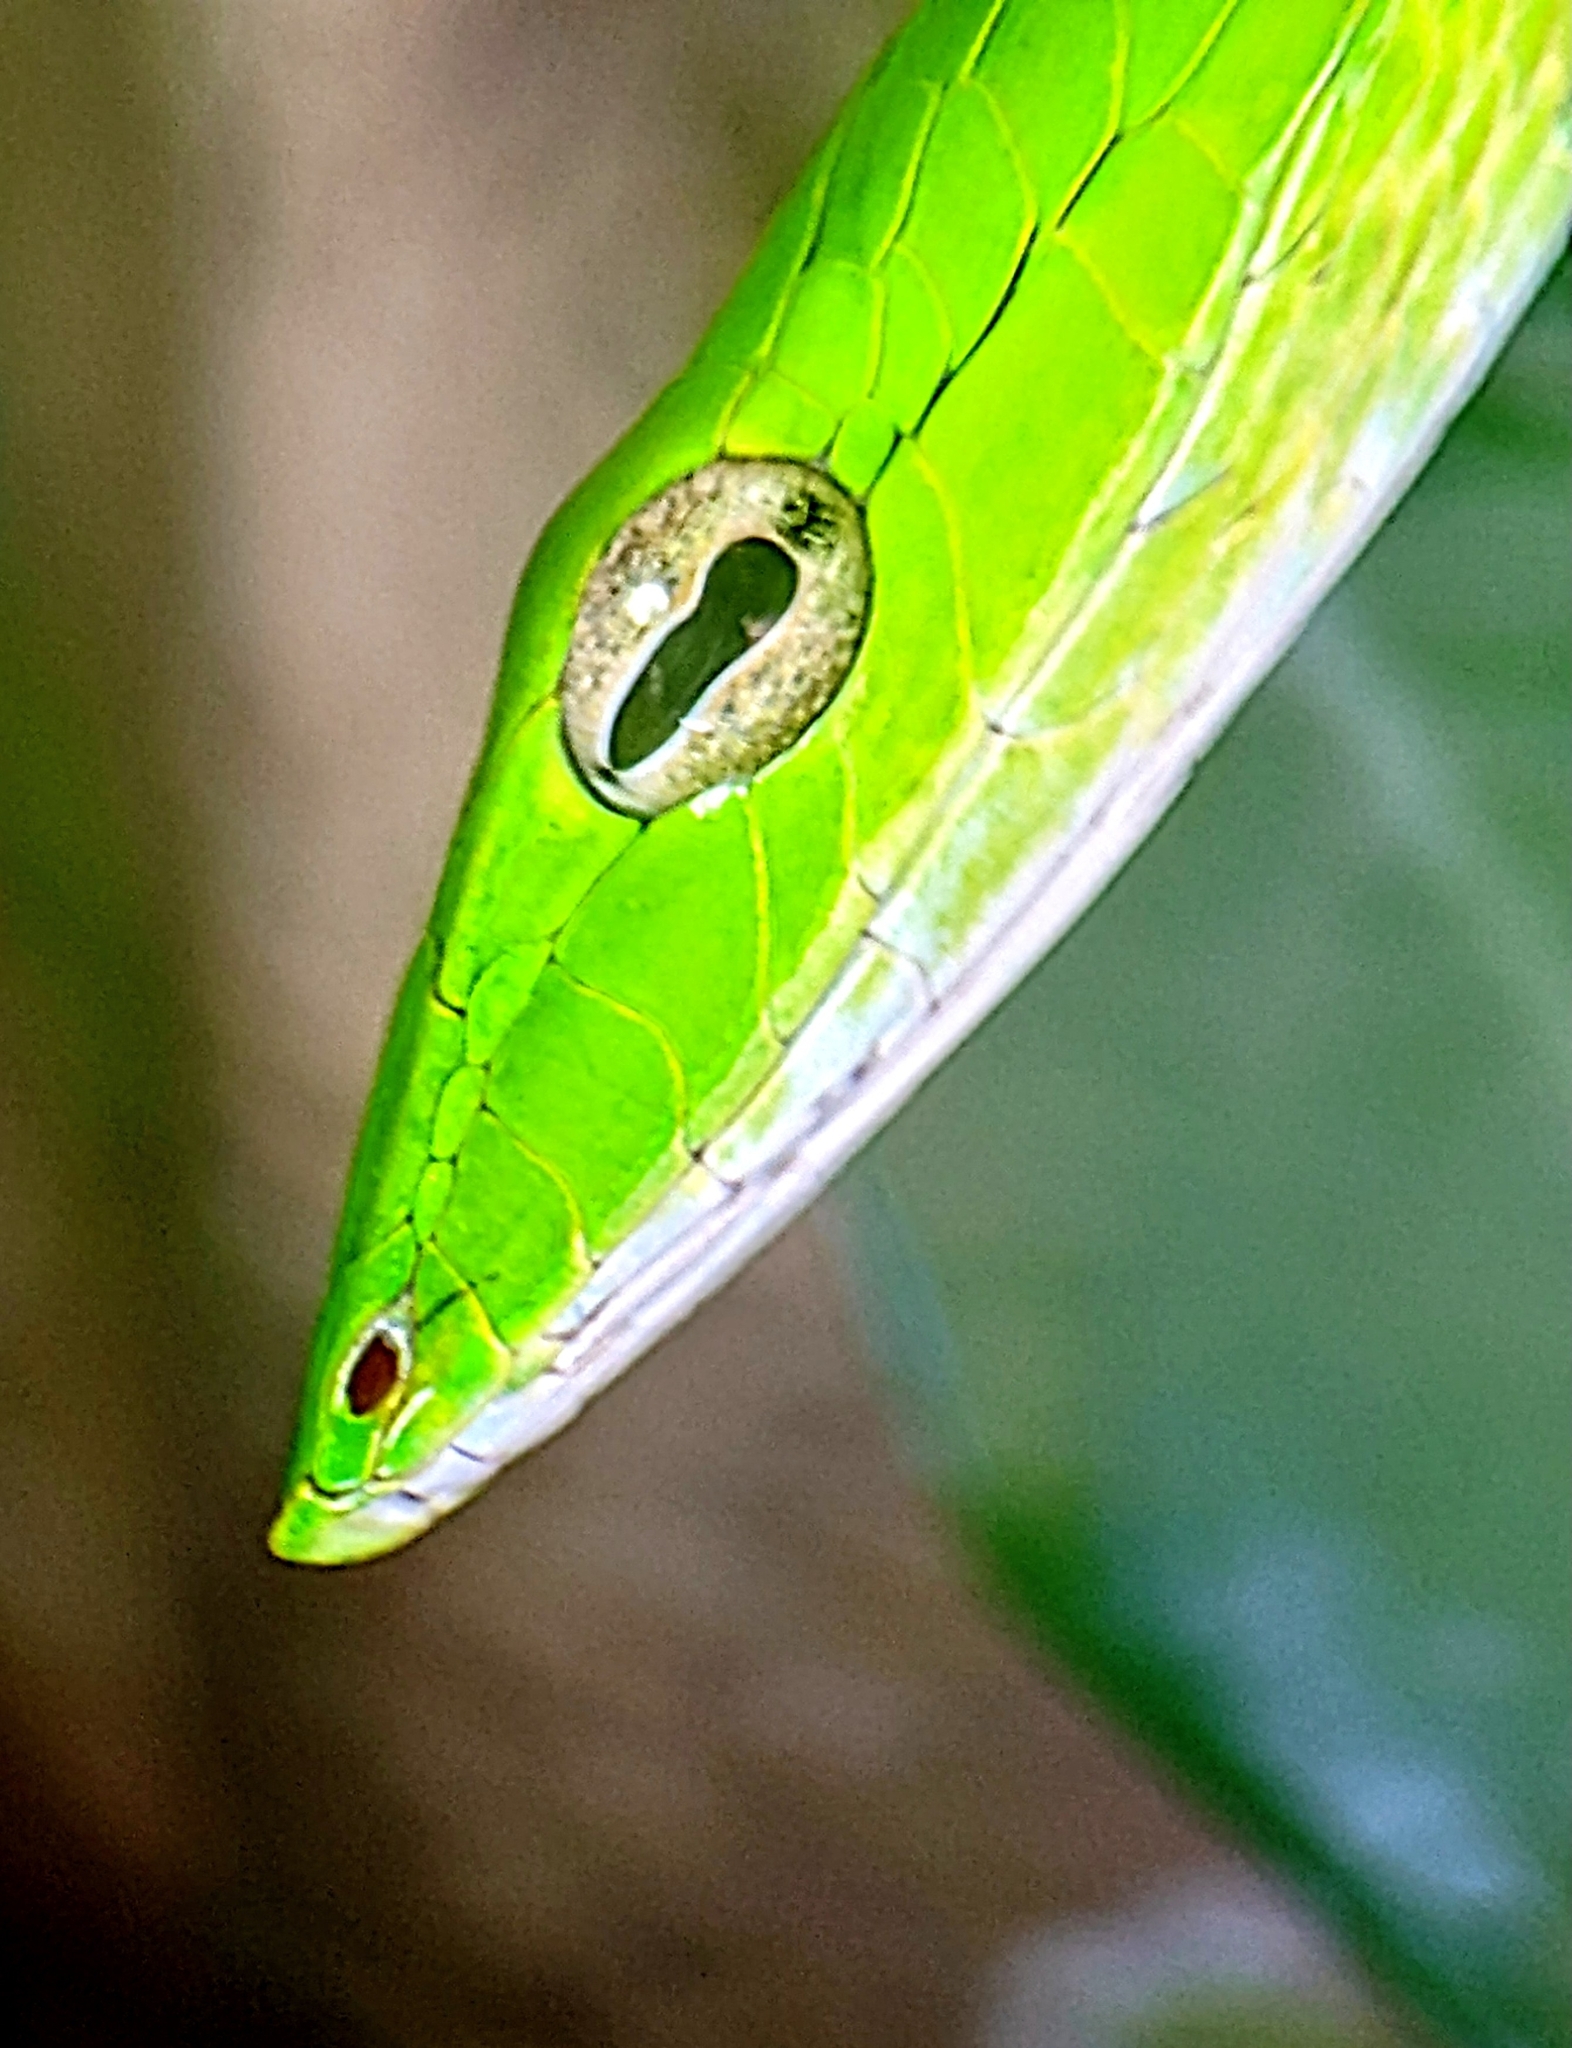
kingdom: Animalia
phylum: Chordata
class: Squamata
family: Colubridae
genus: Ahaetulla
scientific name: Ahaetulla prasina
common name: Oriental whip snake
